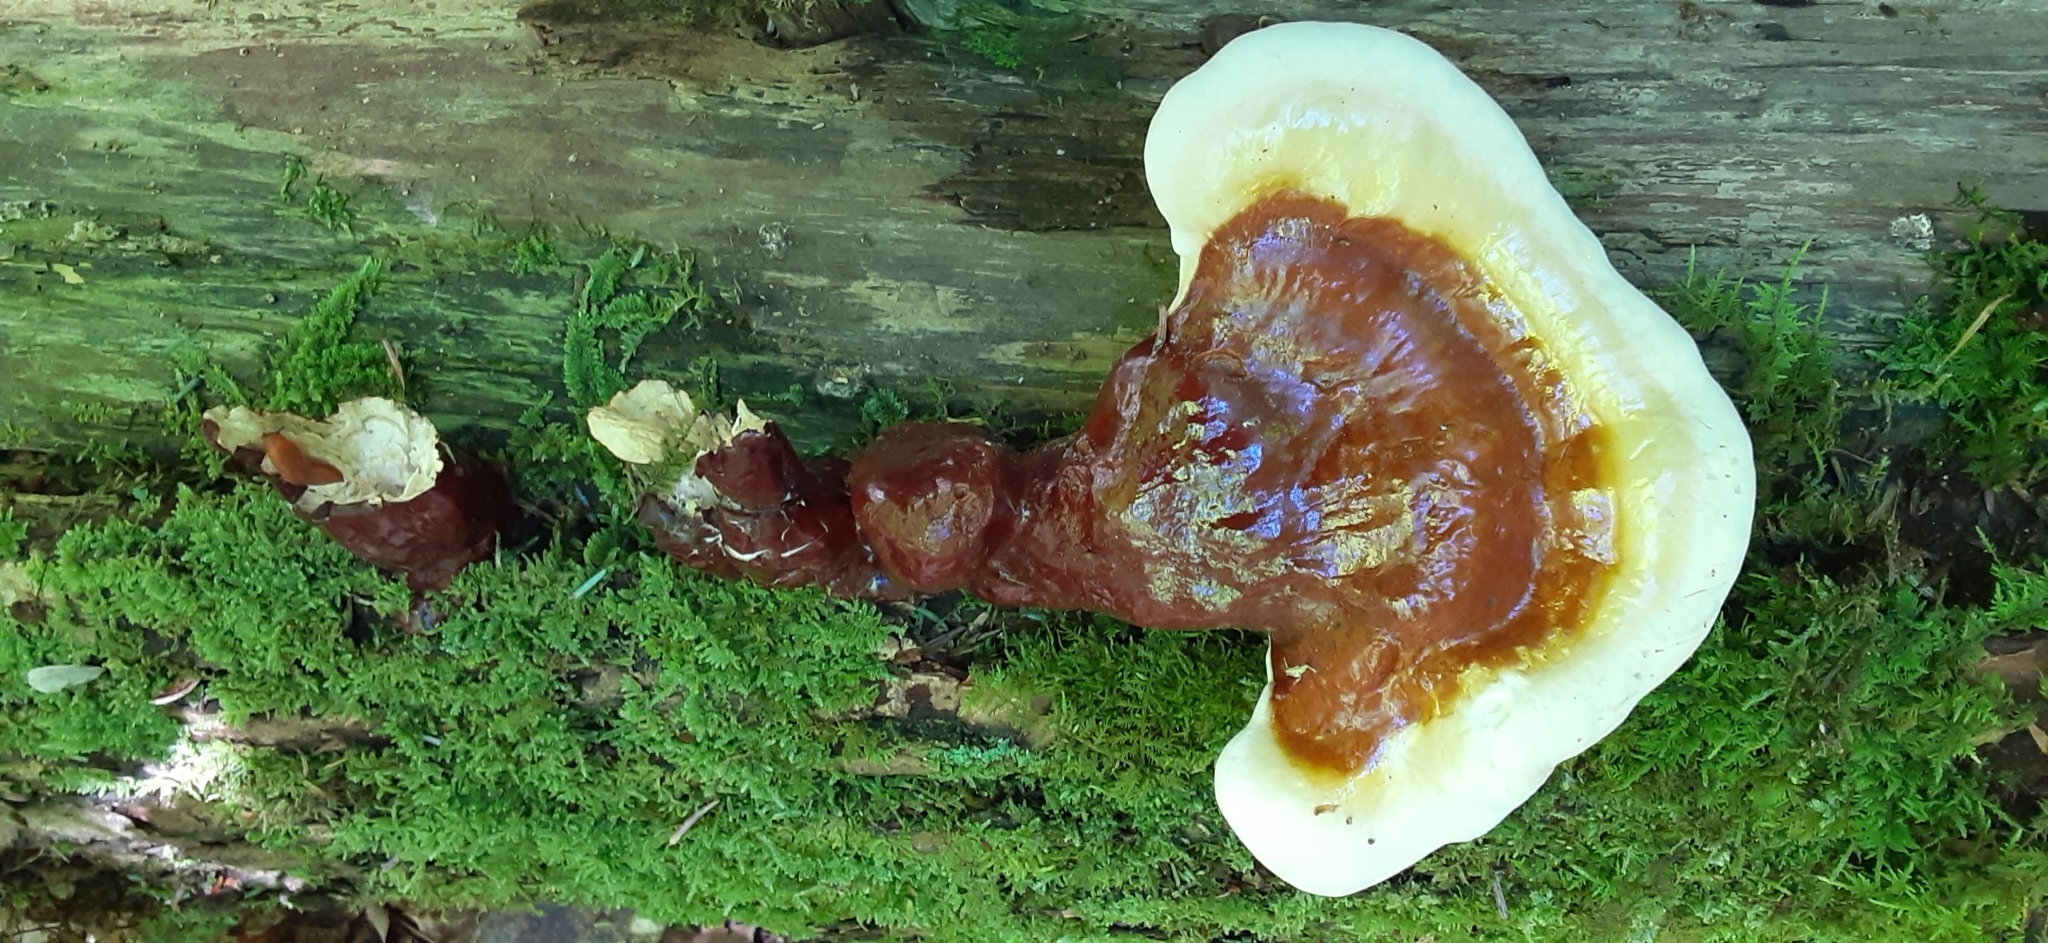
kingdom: Fungi
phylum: Basidiomycota
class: Agaricomycetes
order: Polyporales
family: Polyporaceae
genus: Ganoderma
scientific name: Ganoderma tsugae
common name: Hemlock varnish shelf
